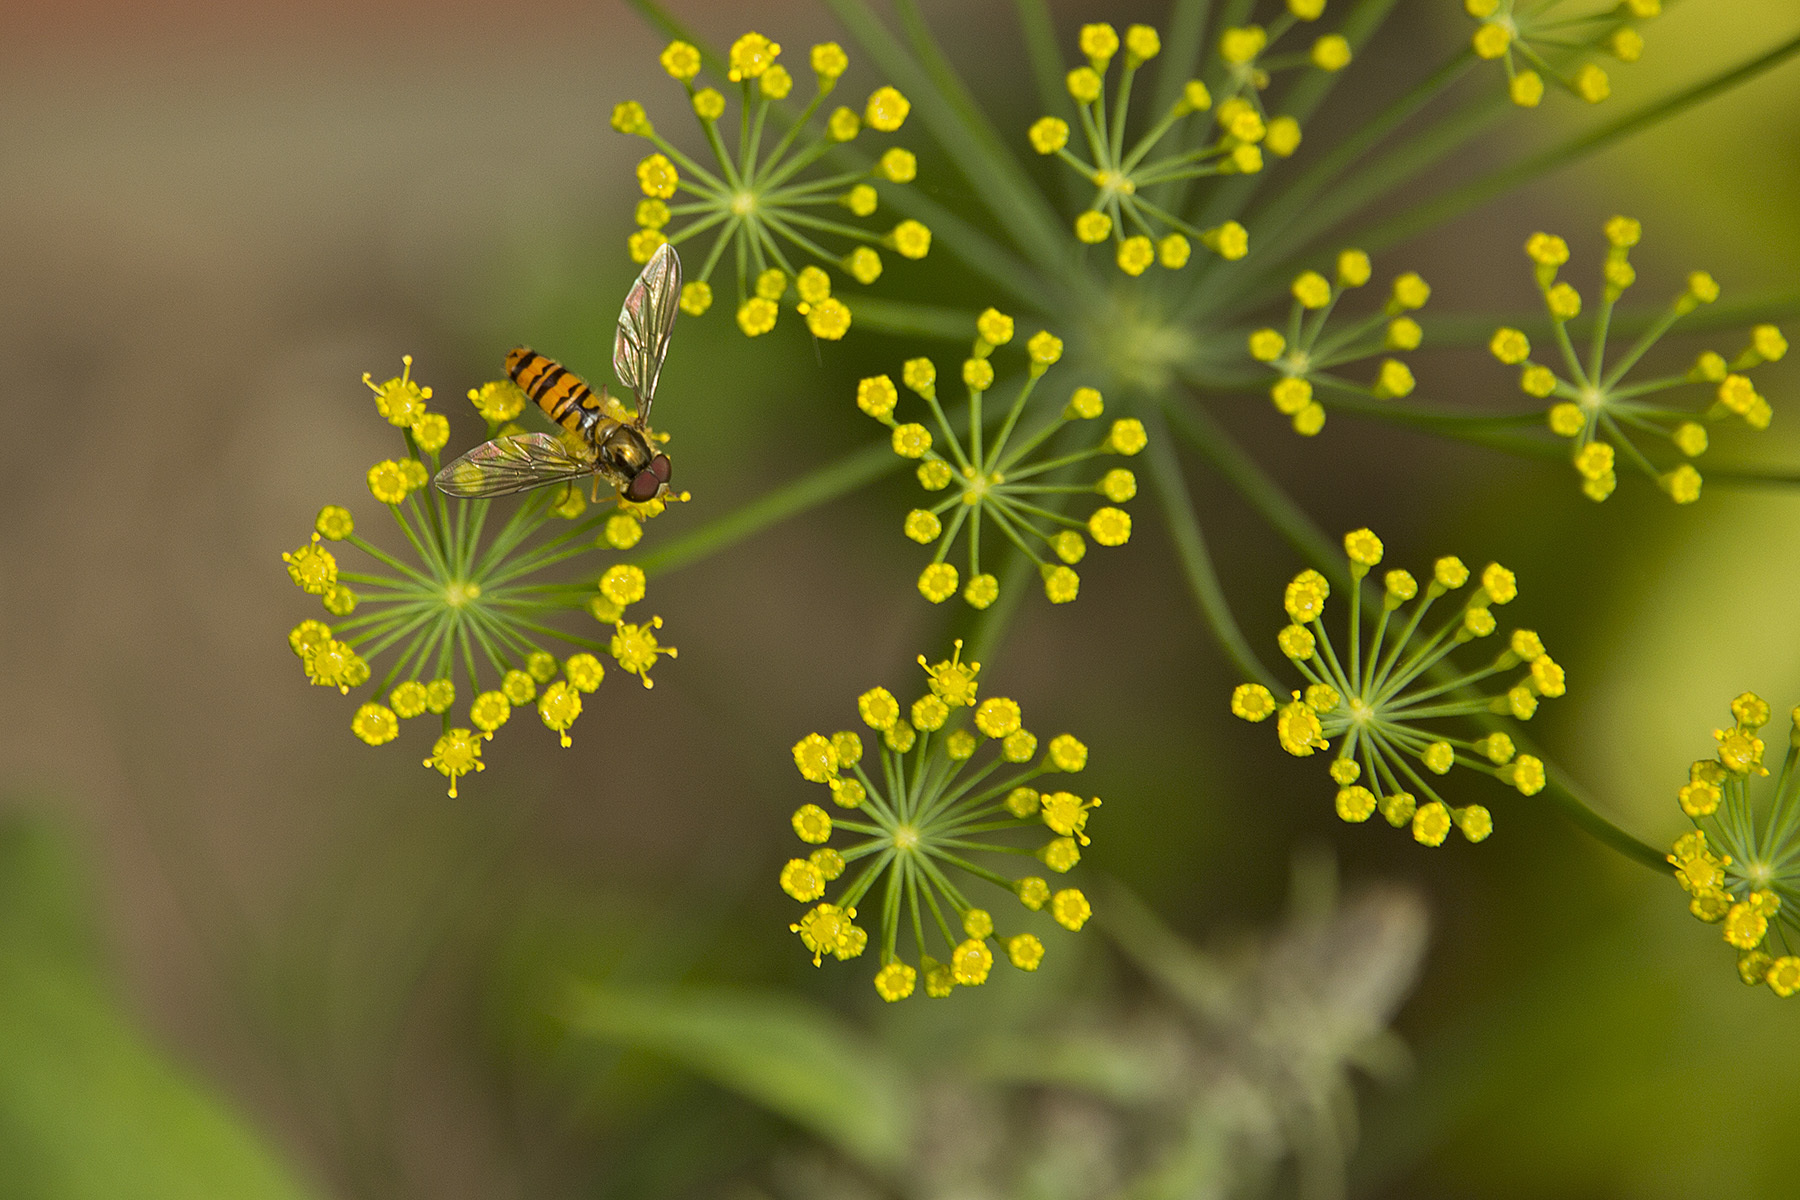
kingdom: Animalia
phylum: Arthropoda
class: Insecta
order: Diptera
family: Syrphidae
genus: Episyrphus
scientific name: Episyrphus balteatus
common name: Marmalade hoverfly
